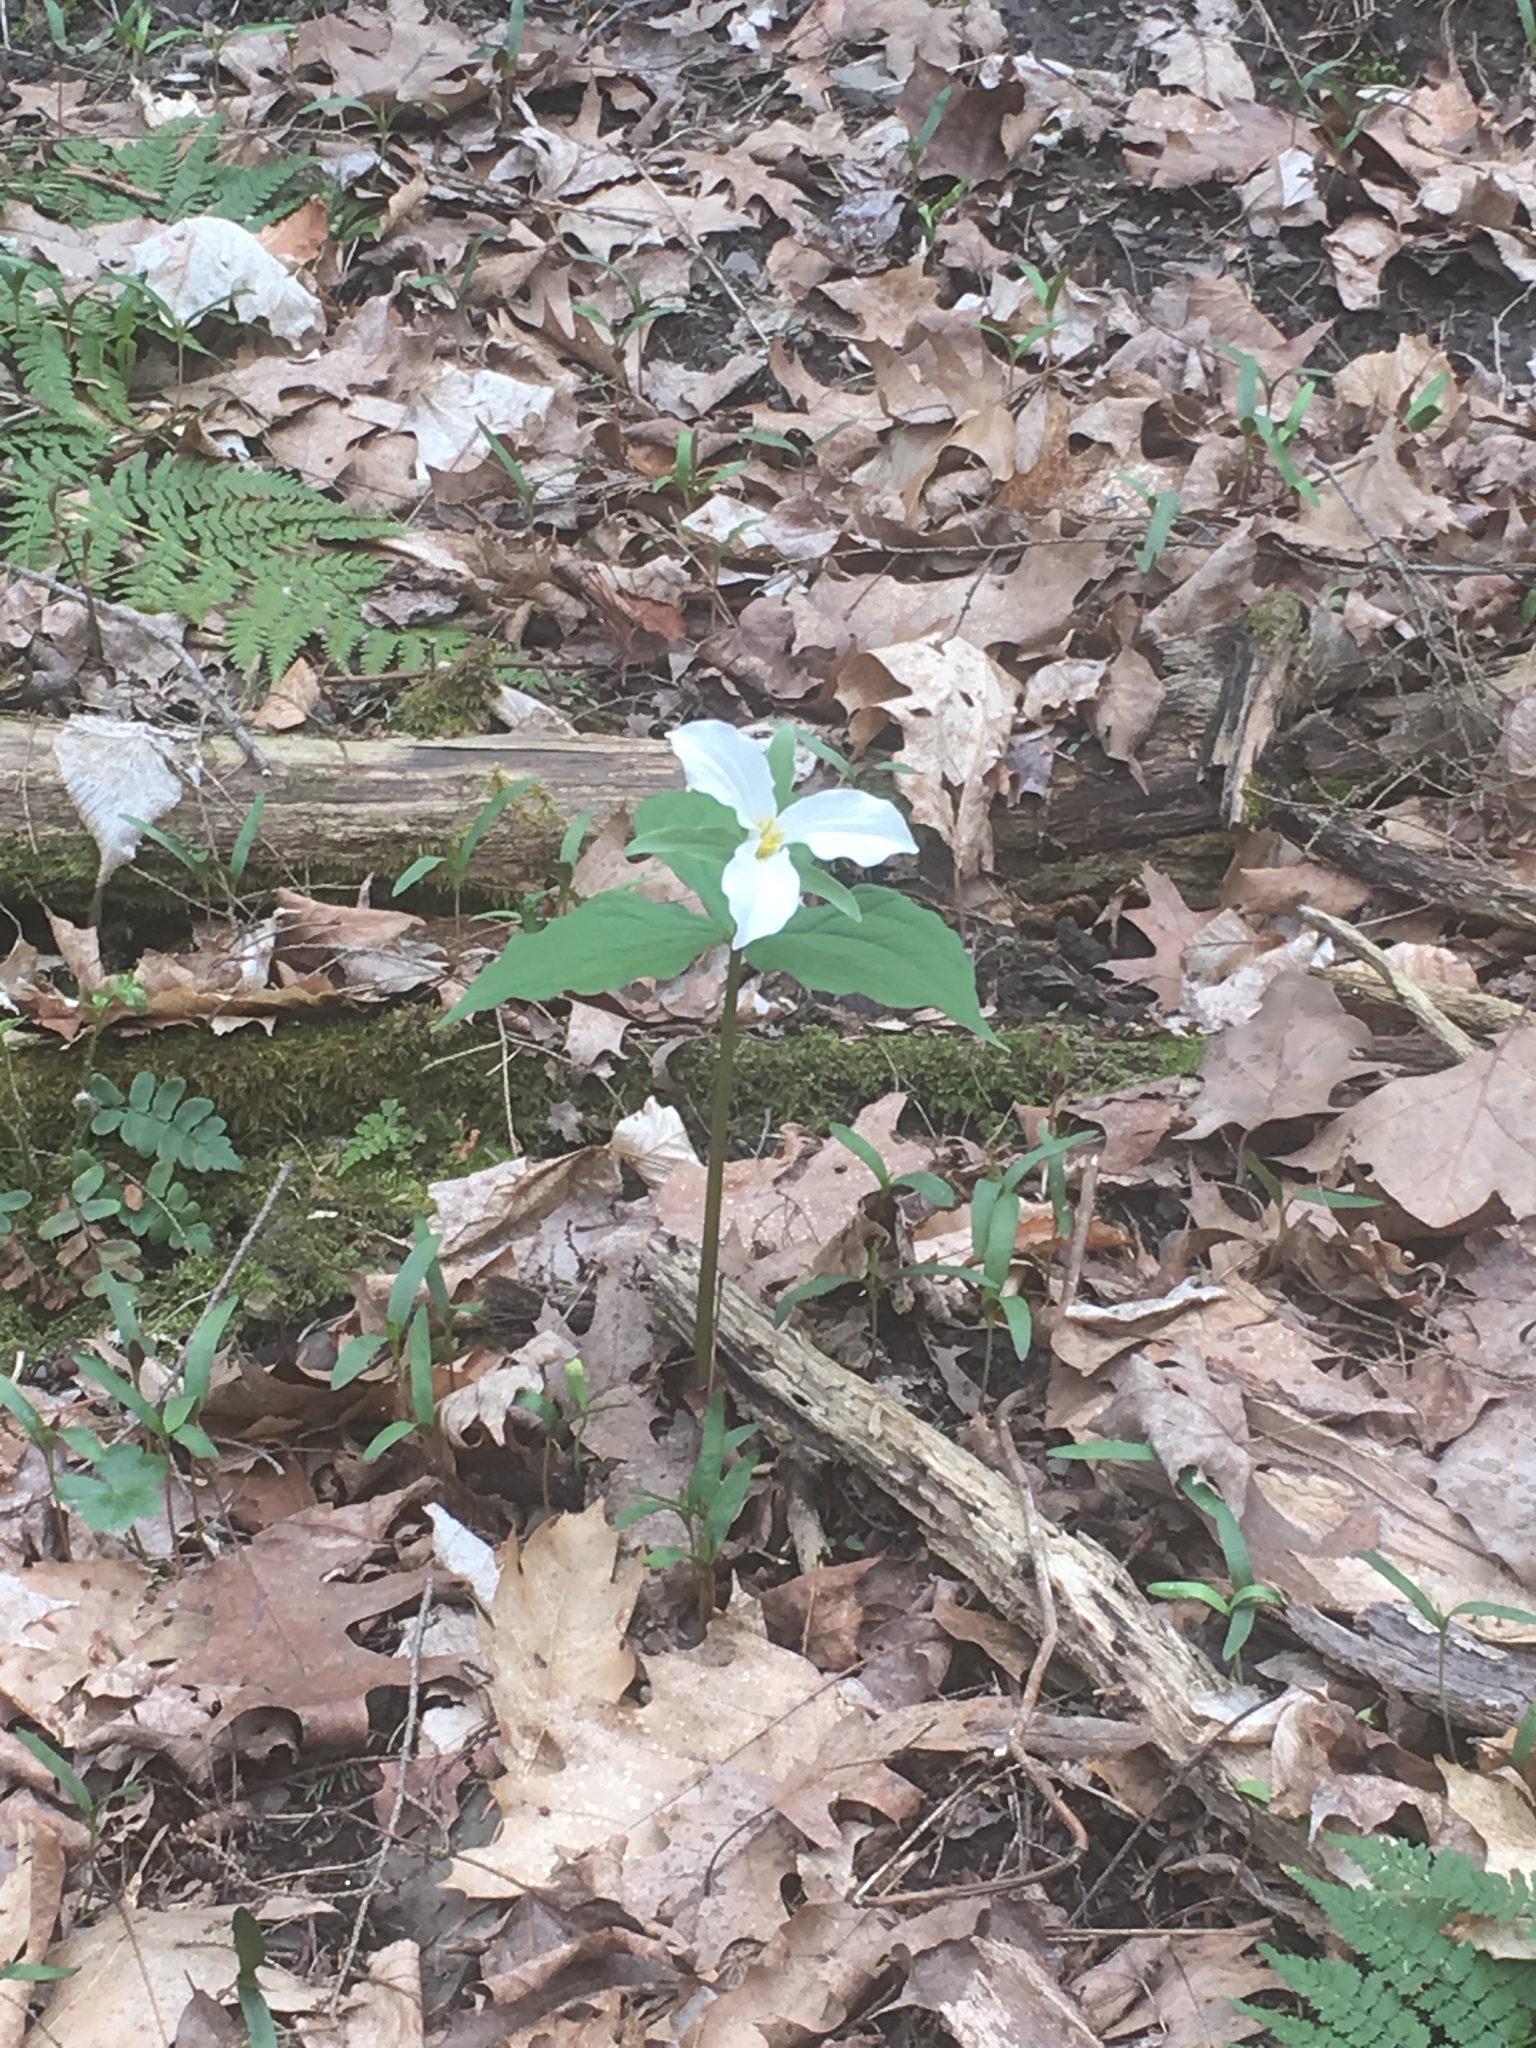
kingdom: Plantae
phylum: Tracheophyta
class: Liliopsida
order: Liliales
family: Melanthiaceae
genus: Trillium
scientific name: Trillium grandiflorum
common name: Great white trillium
